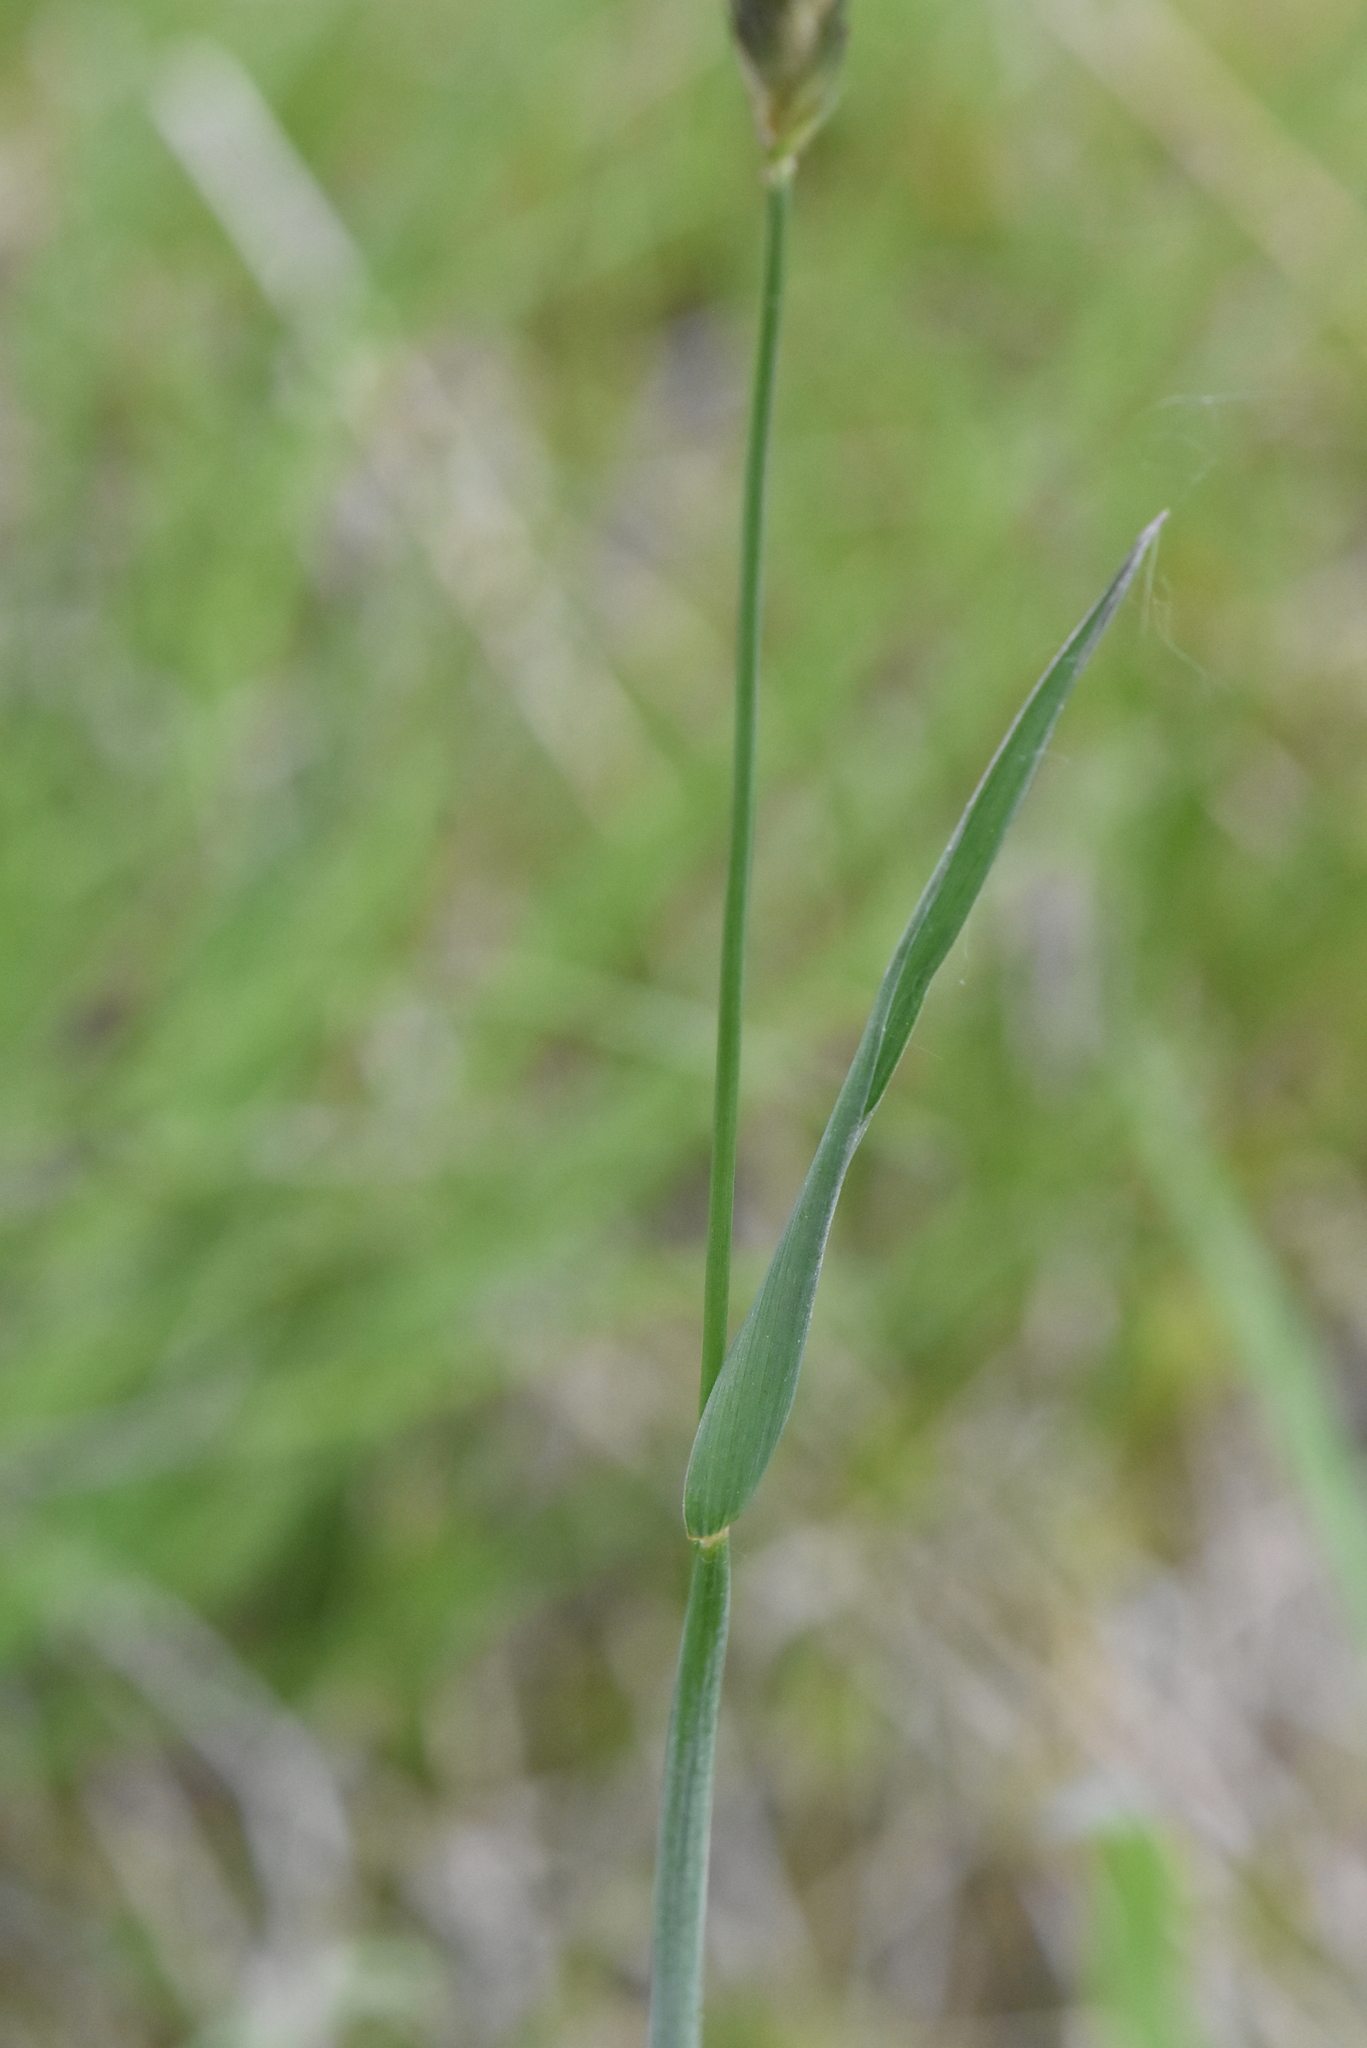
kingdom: Plantae
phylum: Tracheophyta
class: Liliopsida
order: Poales
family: Poaceae
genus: Alopecurus
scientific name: Alopecurus pratensis
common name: Meadow foxtail
